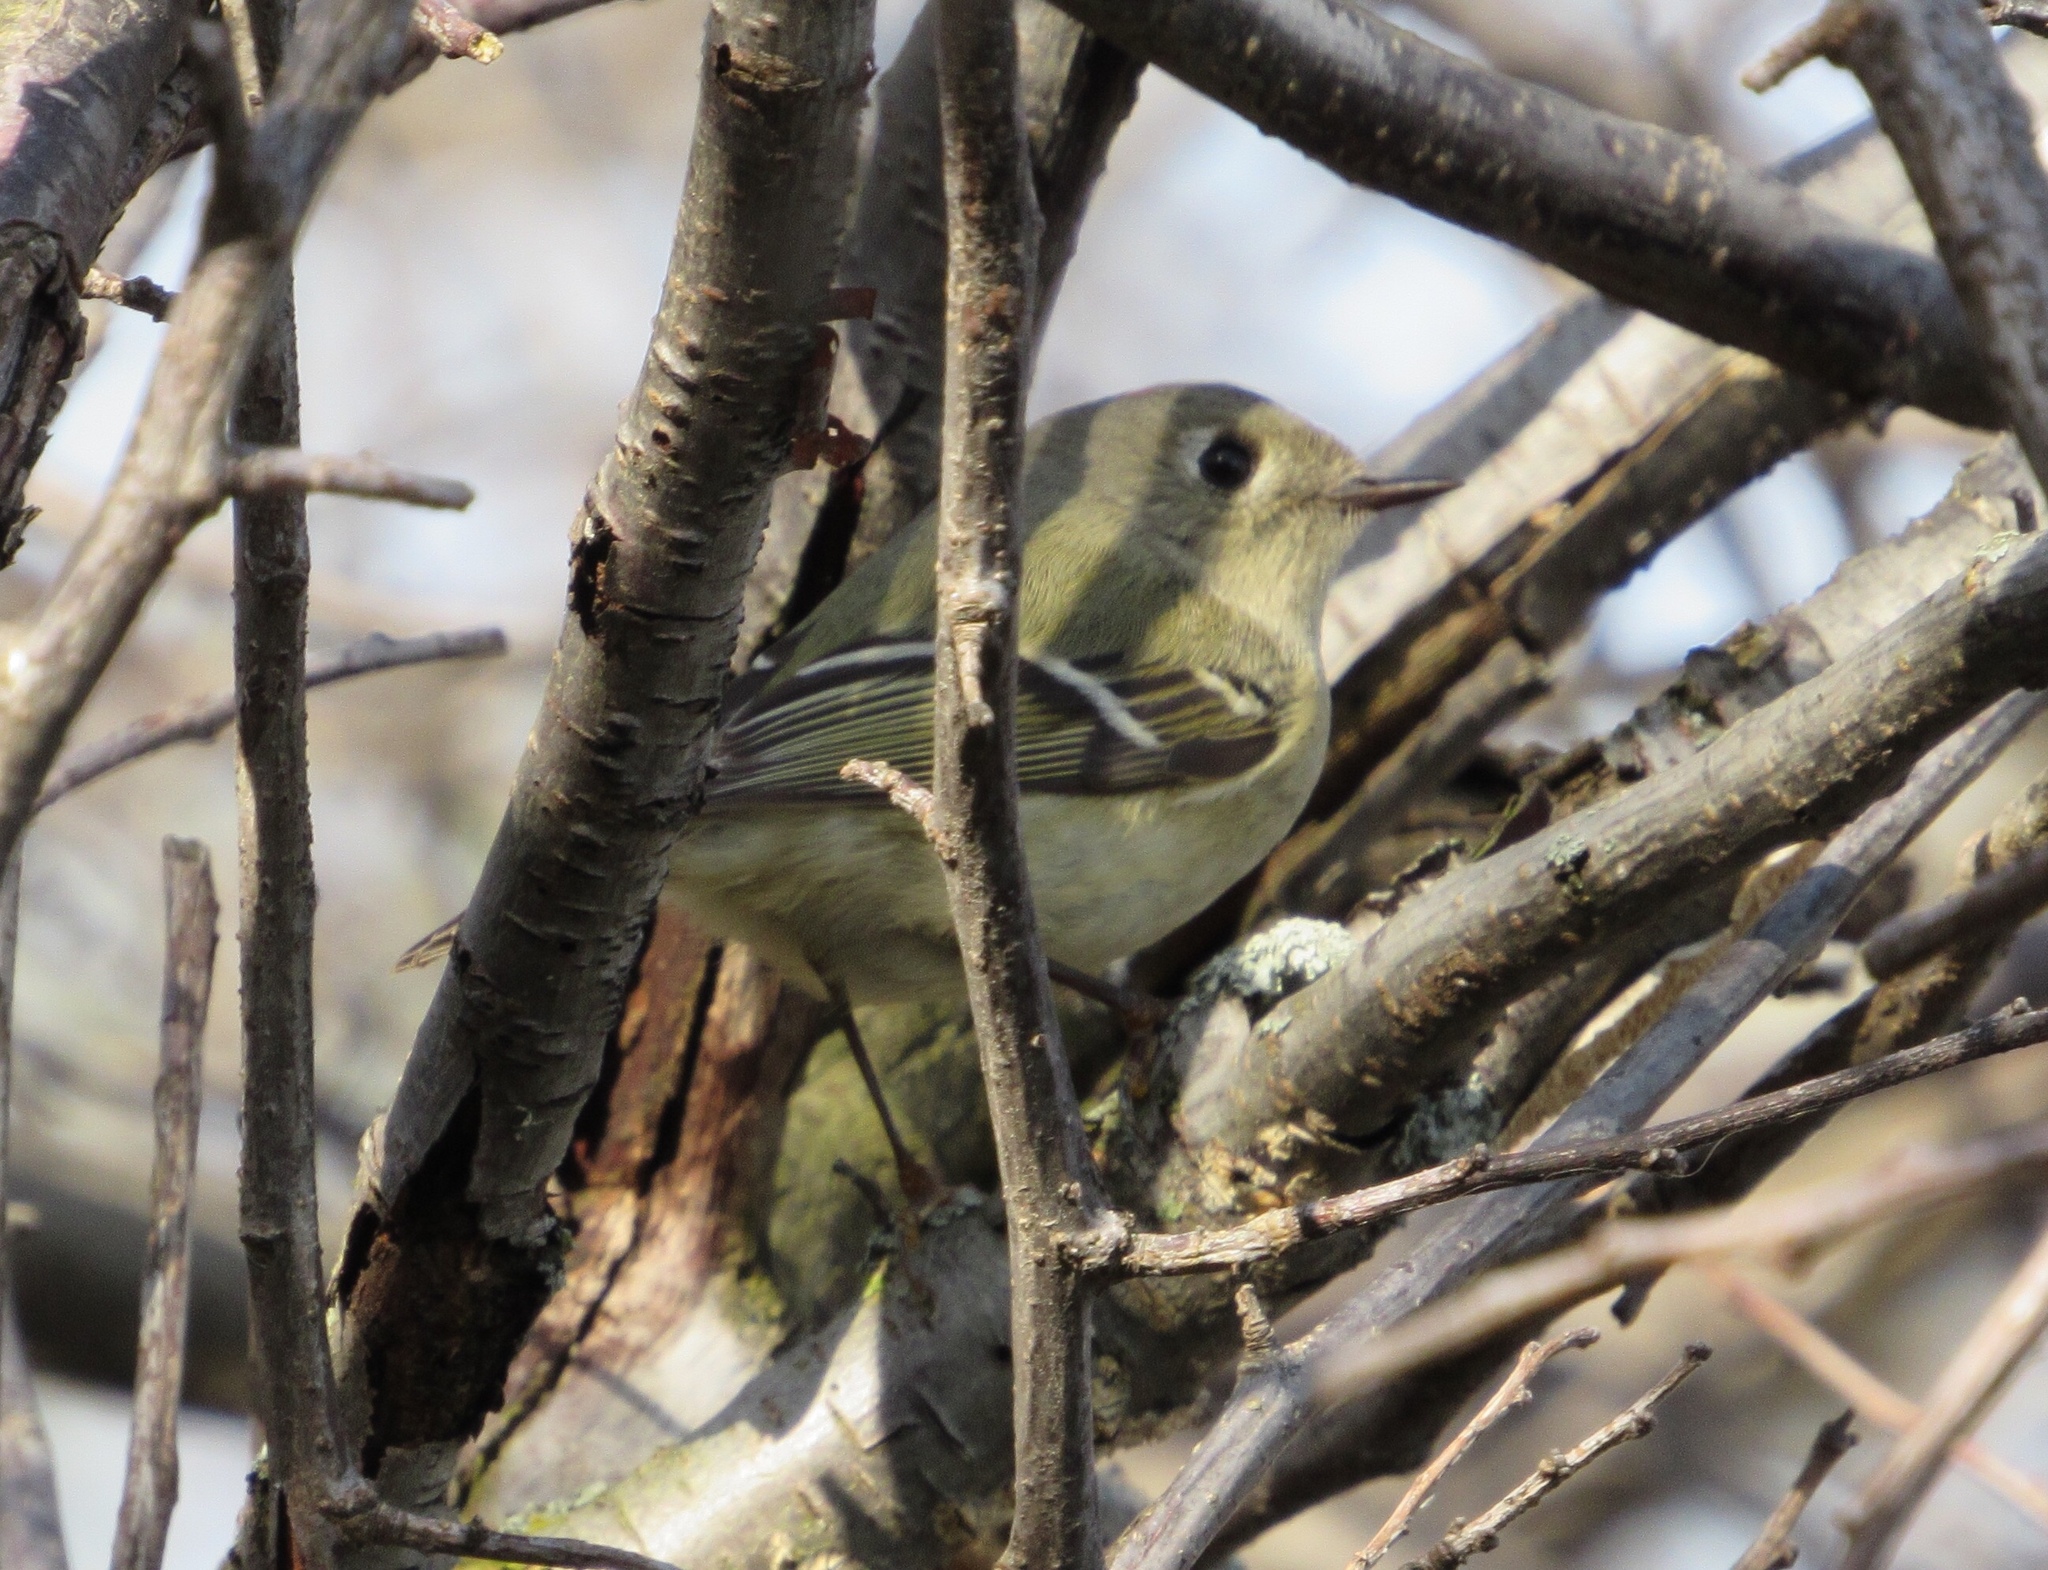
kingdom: Animalia
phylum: Chordata
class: Aves
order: Passeriformes
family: Regulidae
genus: Regulus
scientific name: Regulus calendula
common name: Ruby-crowned kinglet
